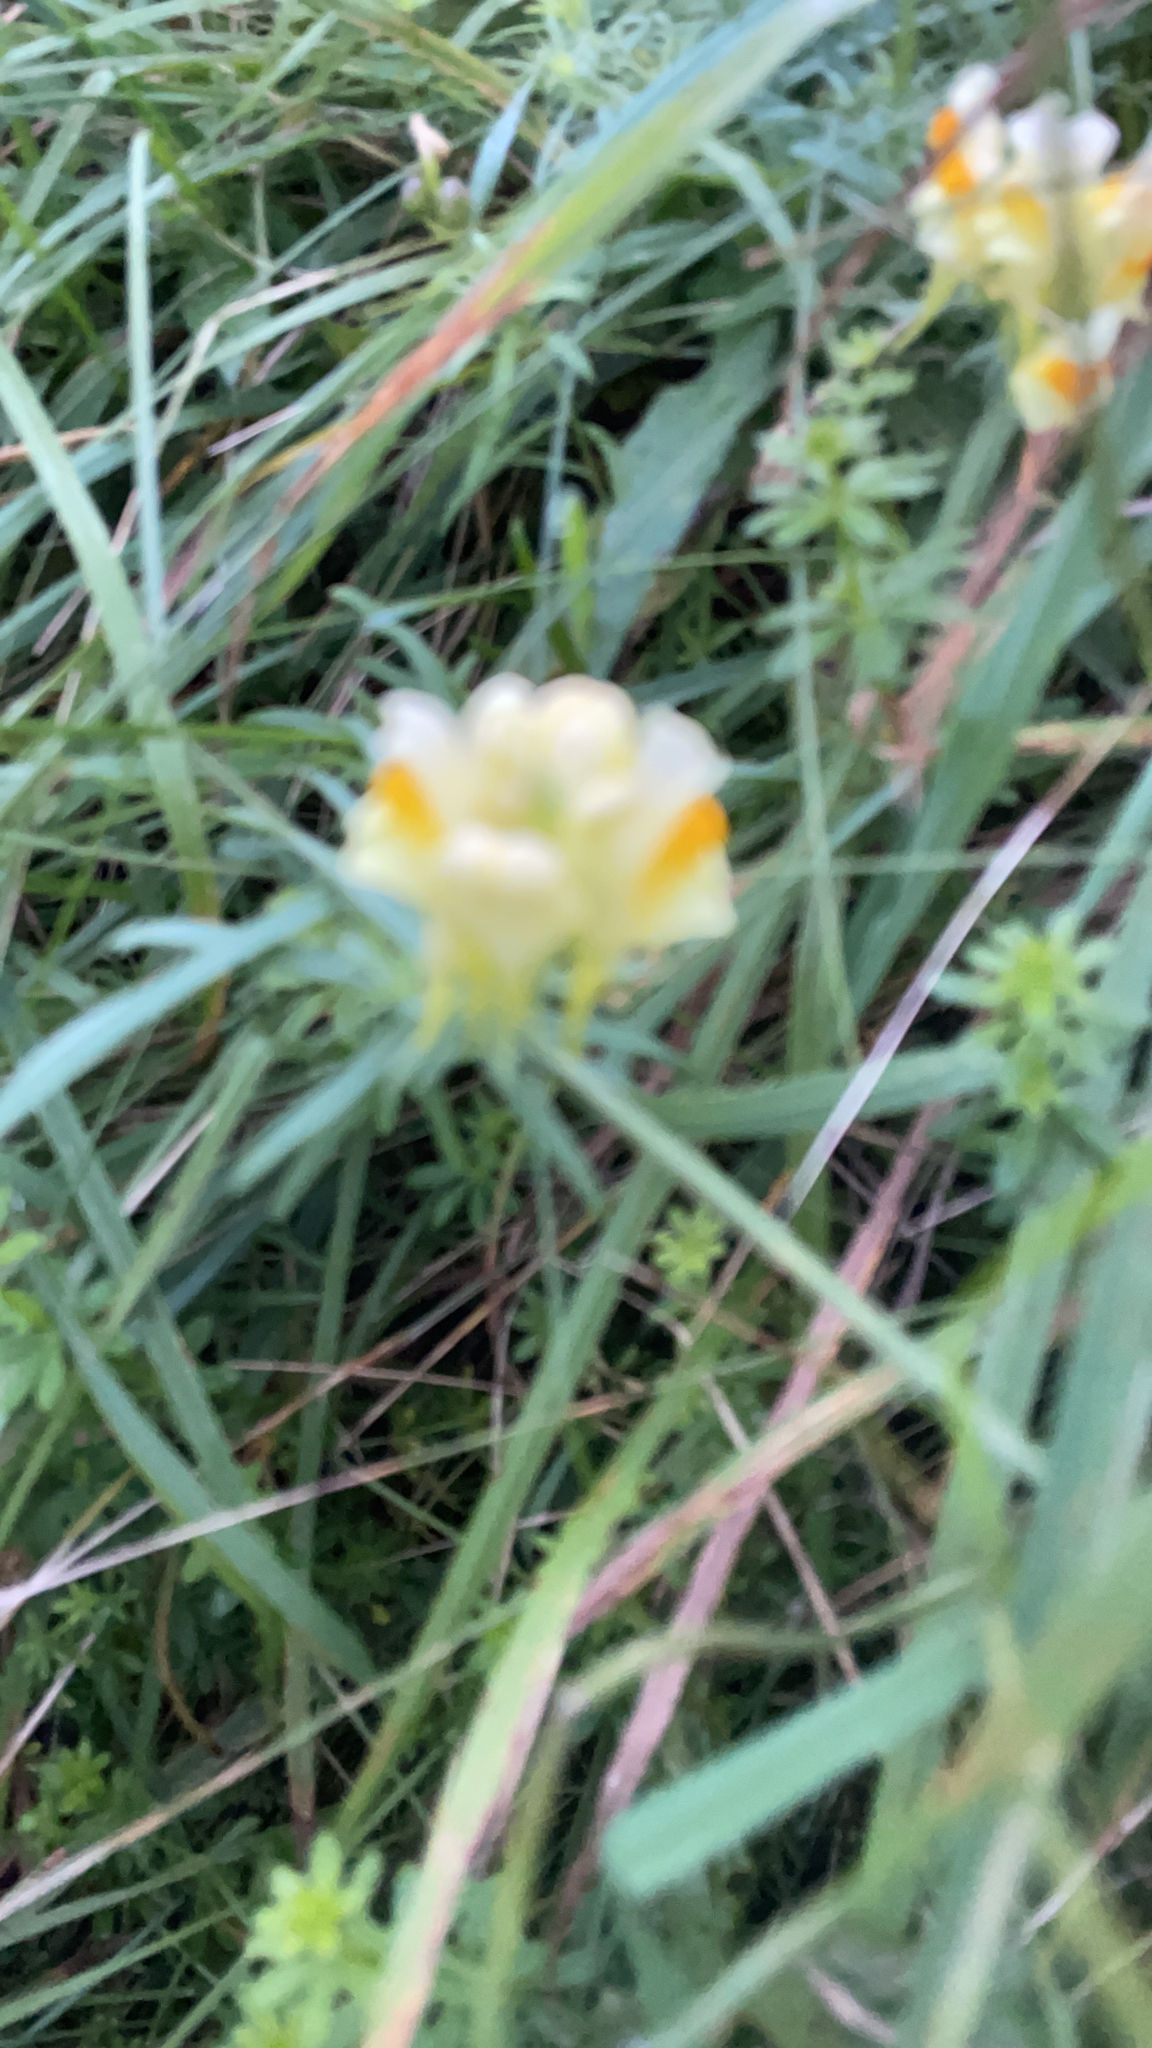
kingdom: Plantae
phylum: Tracheophyta
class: Magnoliopsida
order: Lamiales
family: Plantaginaceae
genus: Linaria
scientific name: Linaria vulgaris
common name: Butter and eggs
